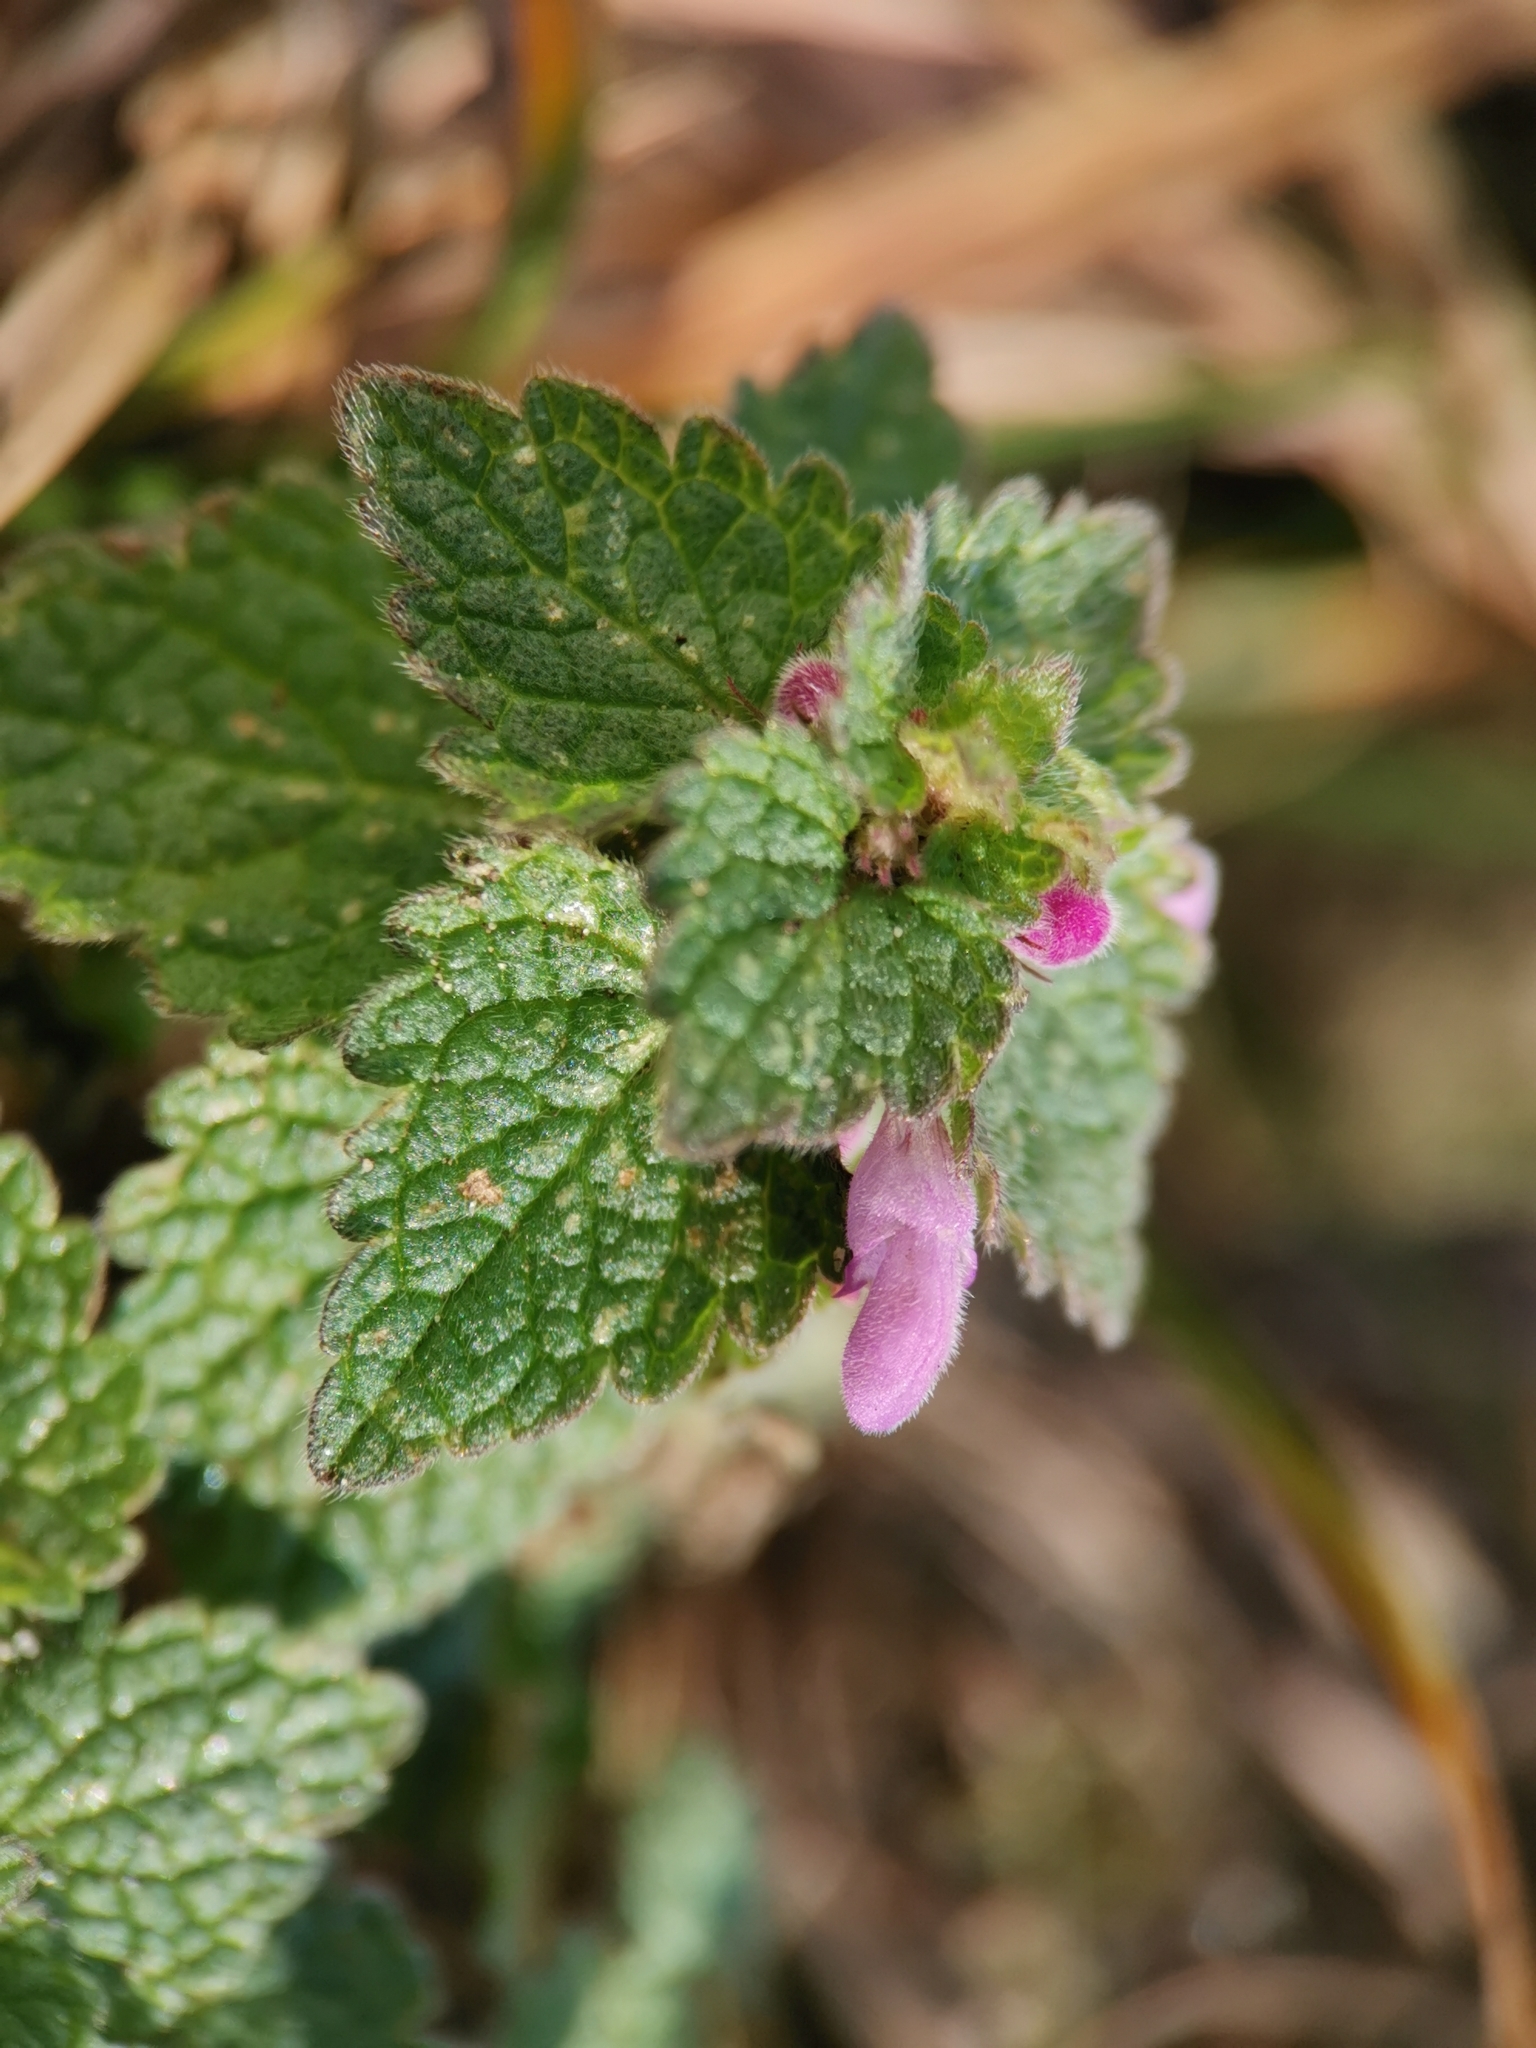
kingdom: Plantae
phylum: Tracheophyta
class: Magnoliopsida
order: Lamiales
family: Lamiaceae
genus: Lamium
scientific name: Lamium purpureum
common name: Red dead-nettle
